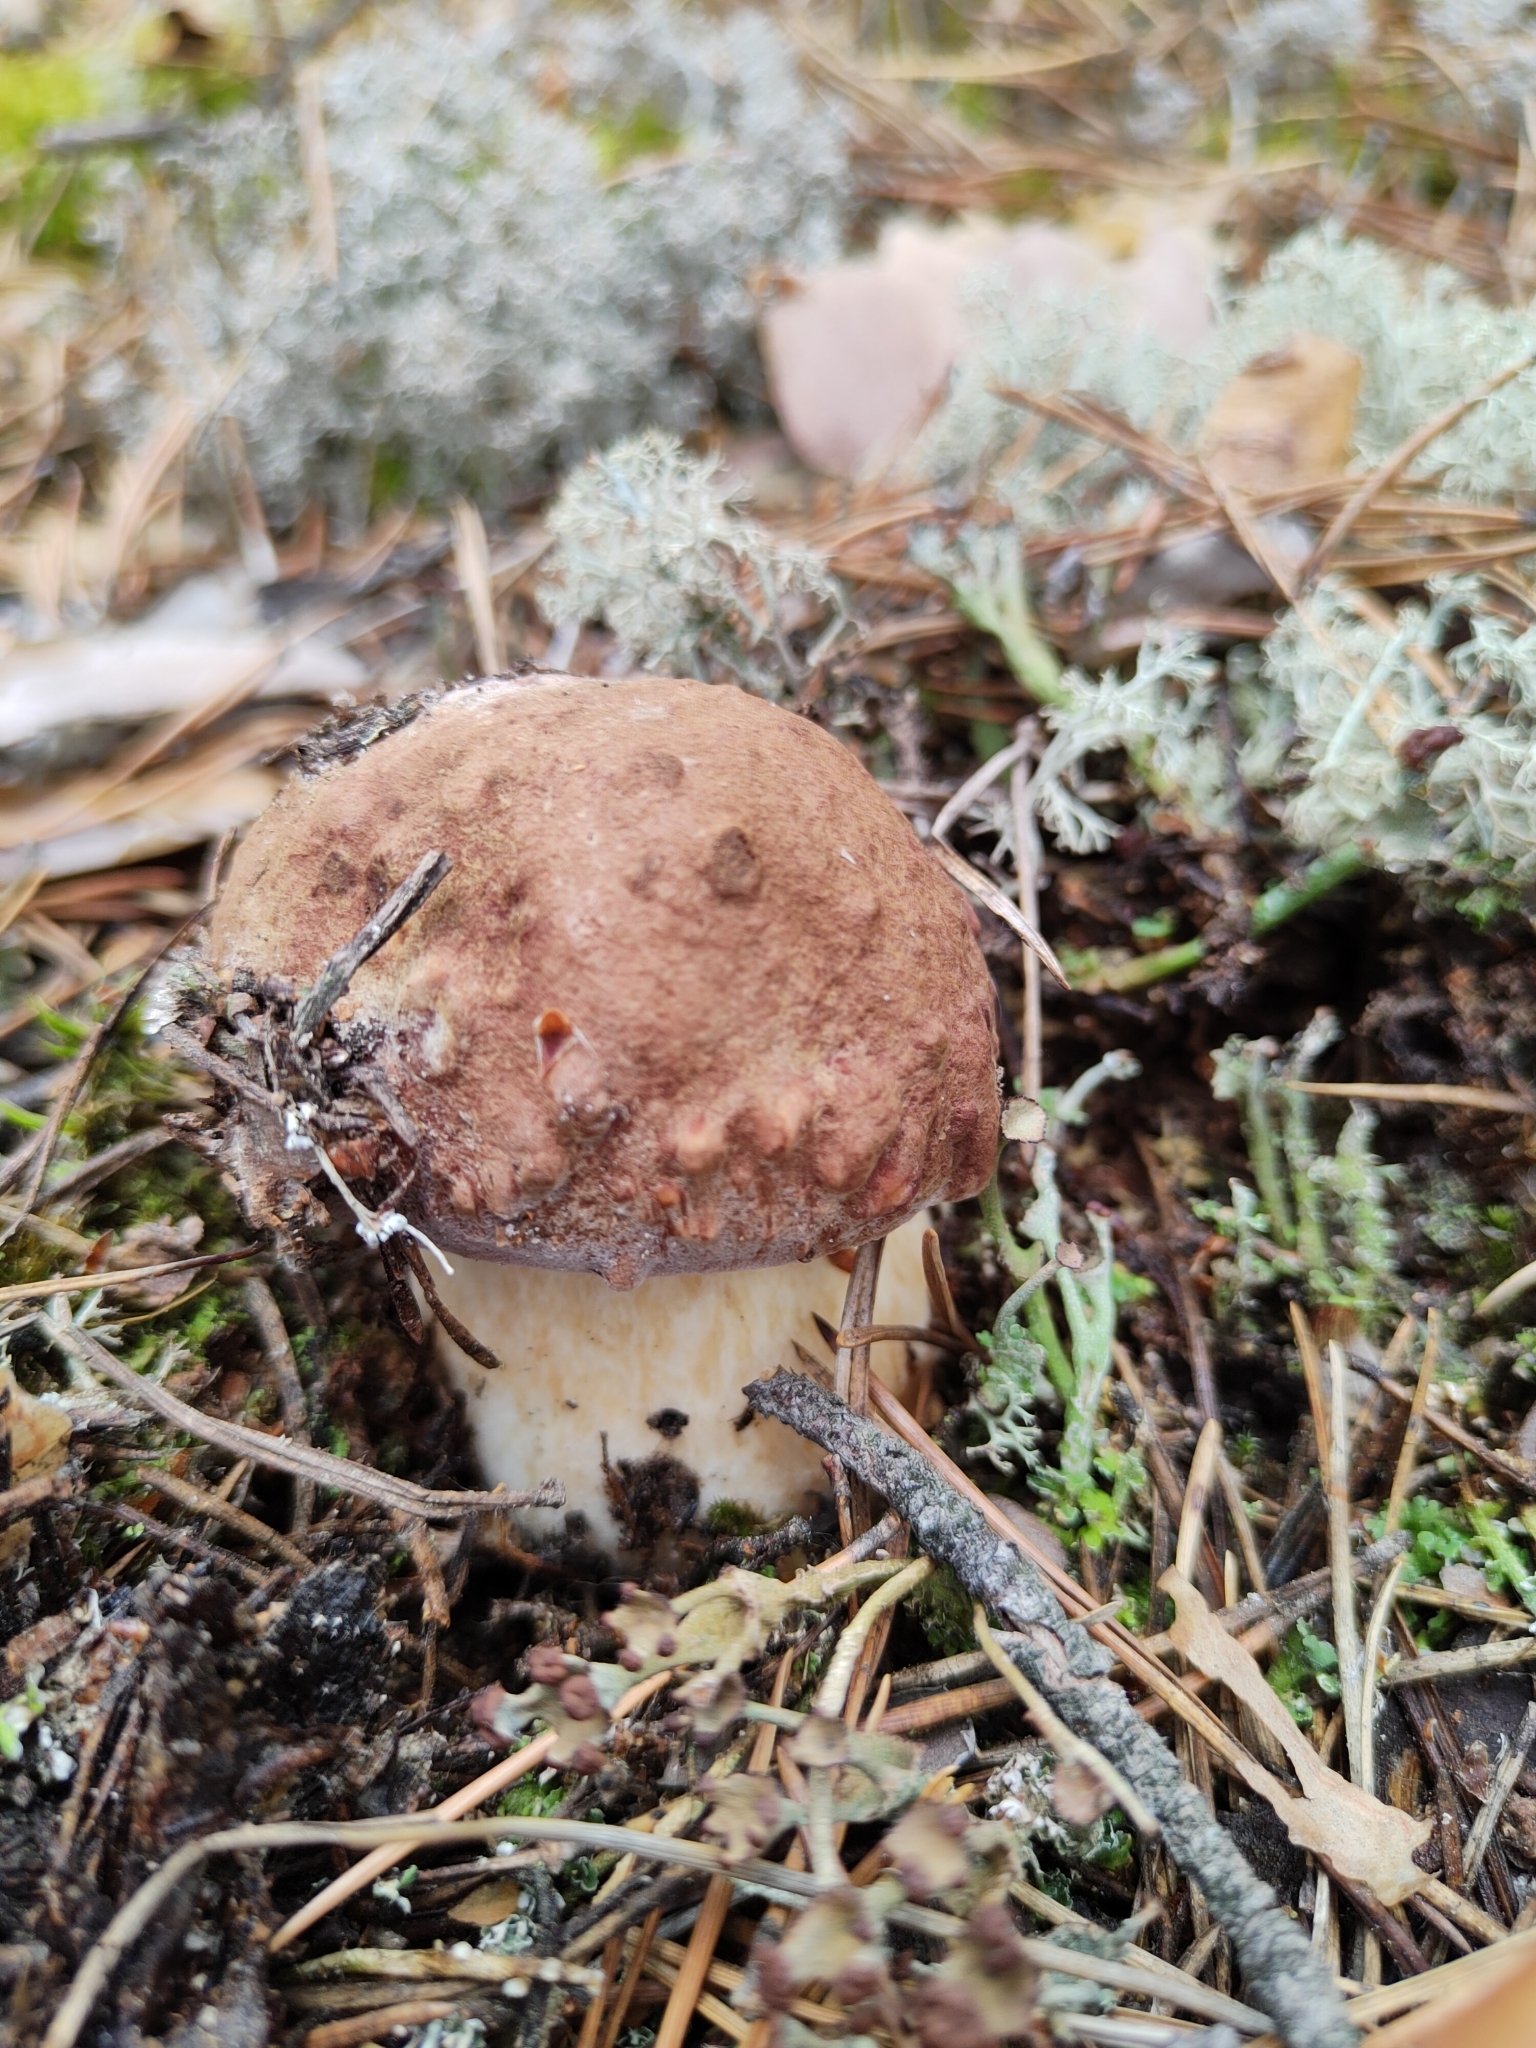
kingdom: Fungi
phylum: Basidiomycota
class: Agaricomycetes
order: Boletales
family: Boletaceae
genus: Boletus
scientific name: Boletus pinophilus
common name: Pine bolete
